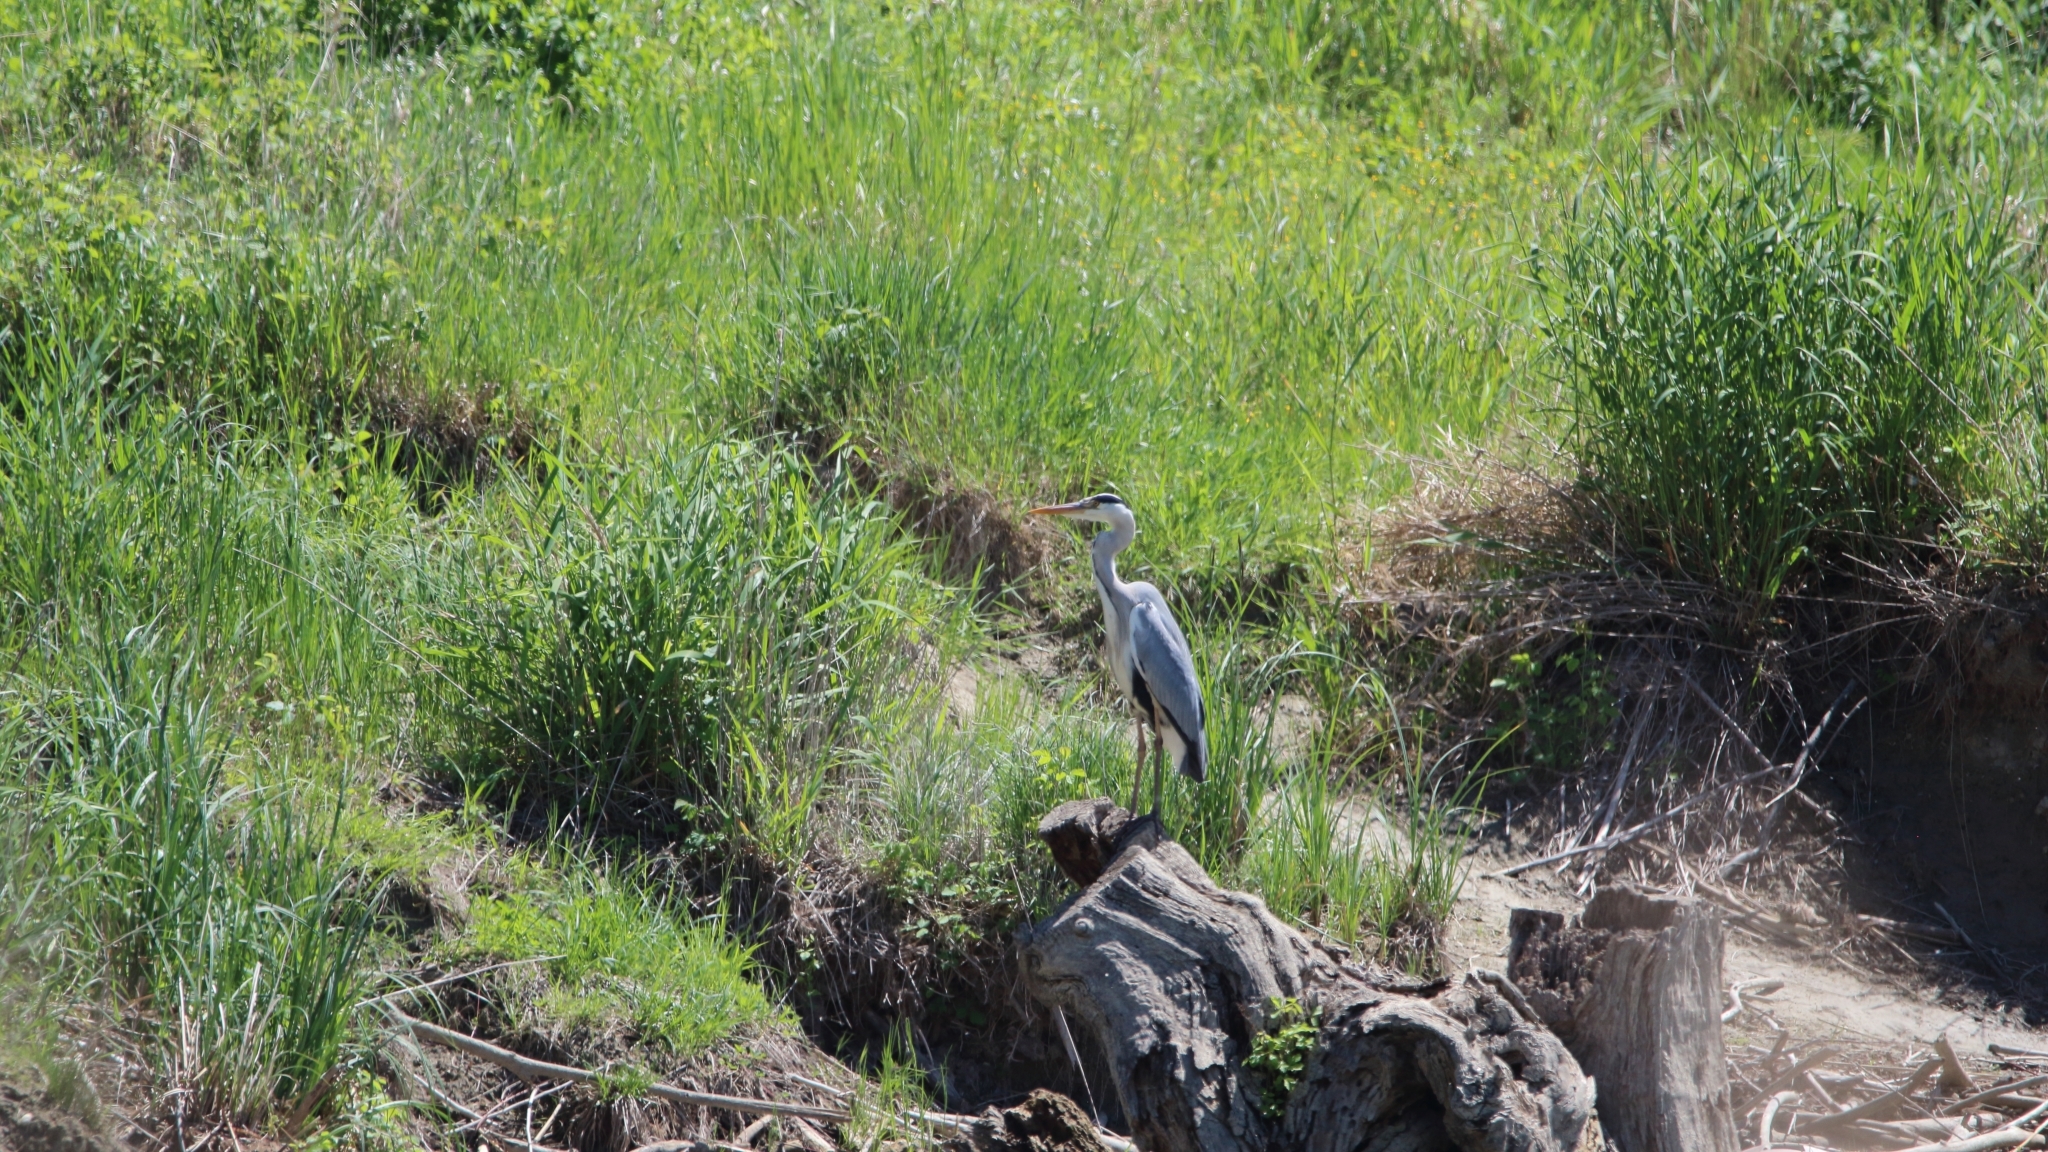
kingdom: Animalia
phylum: Chordata
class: Aves
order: Pelecaniformes
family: Ardeidae
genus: Ardea
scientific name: Ardea cinerea
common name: Grey heron
